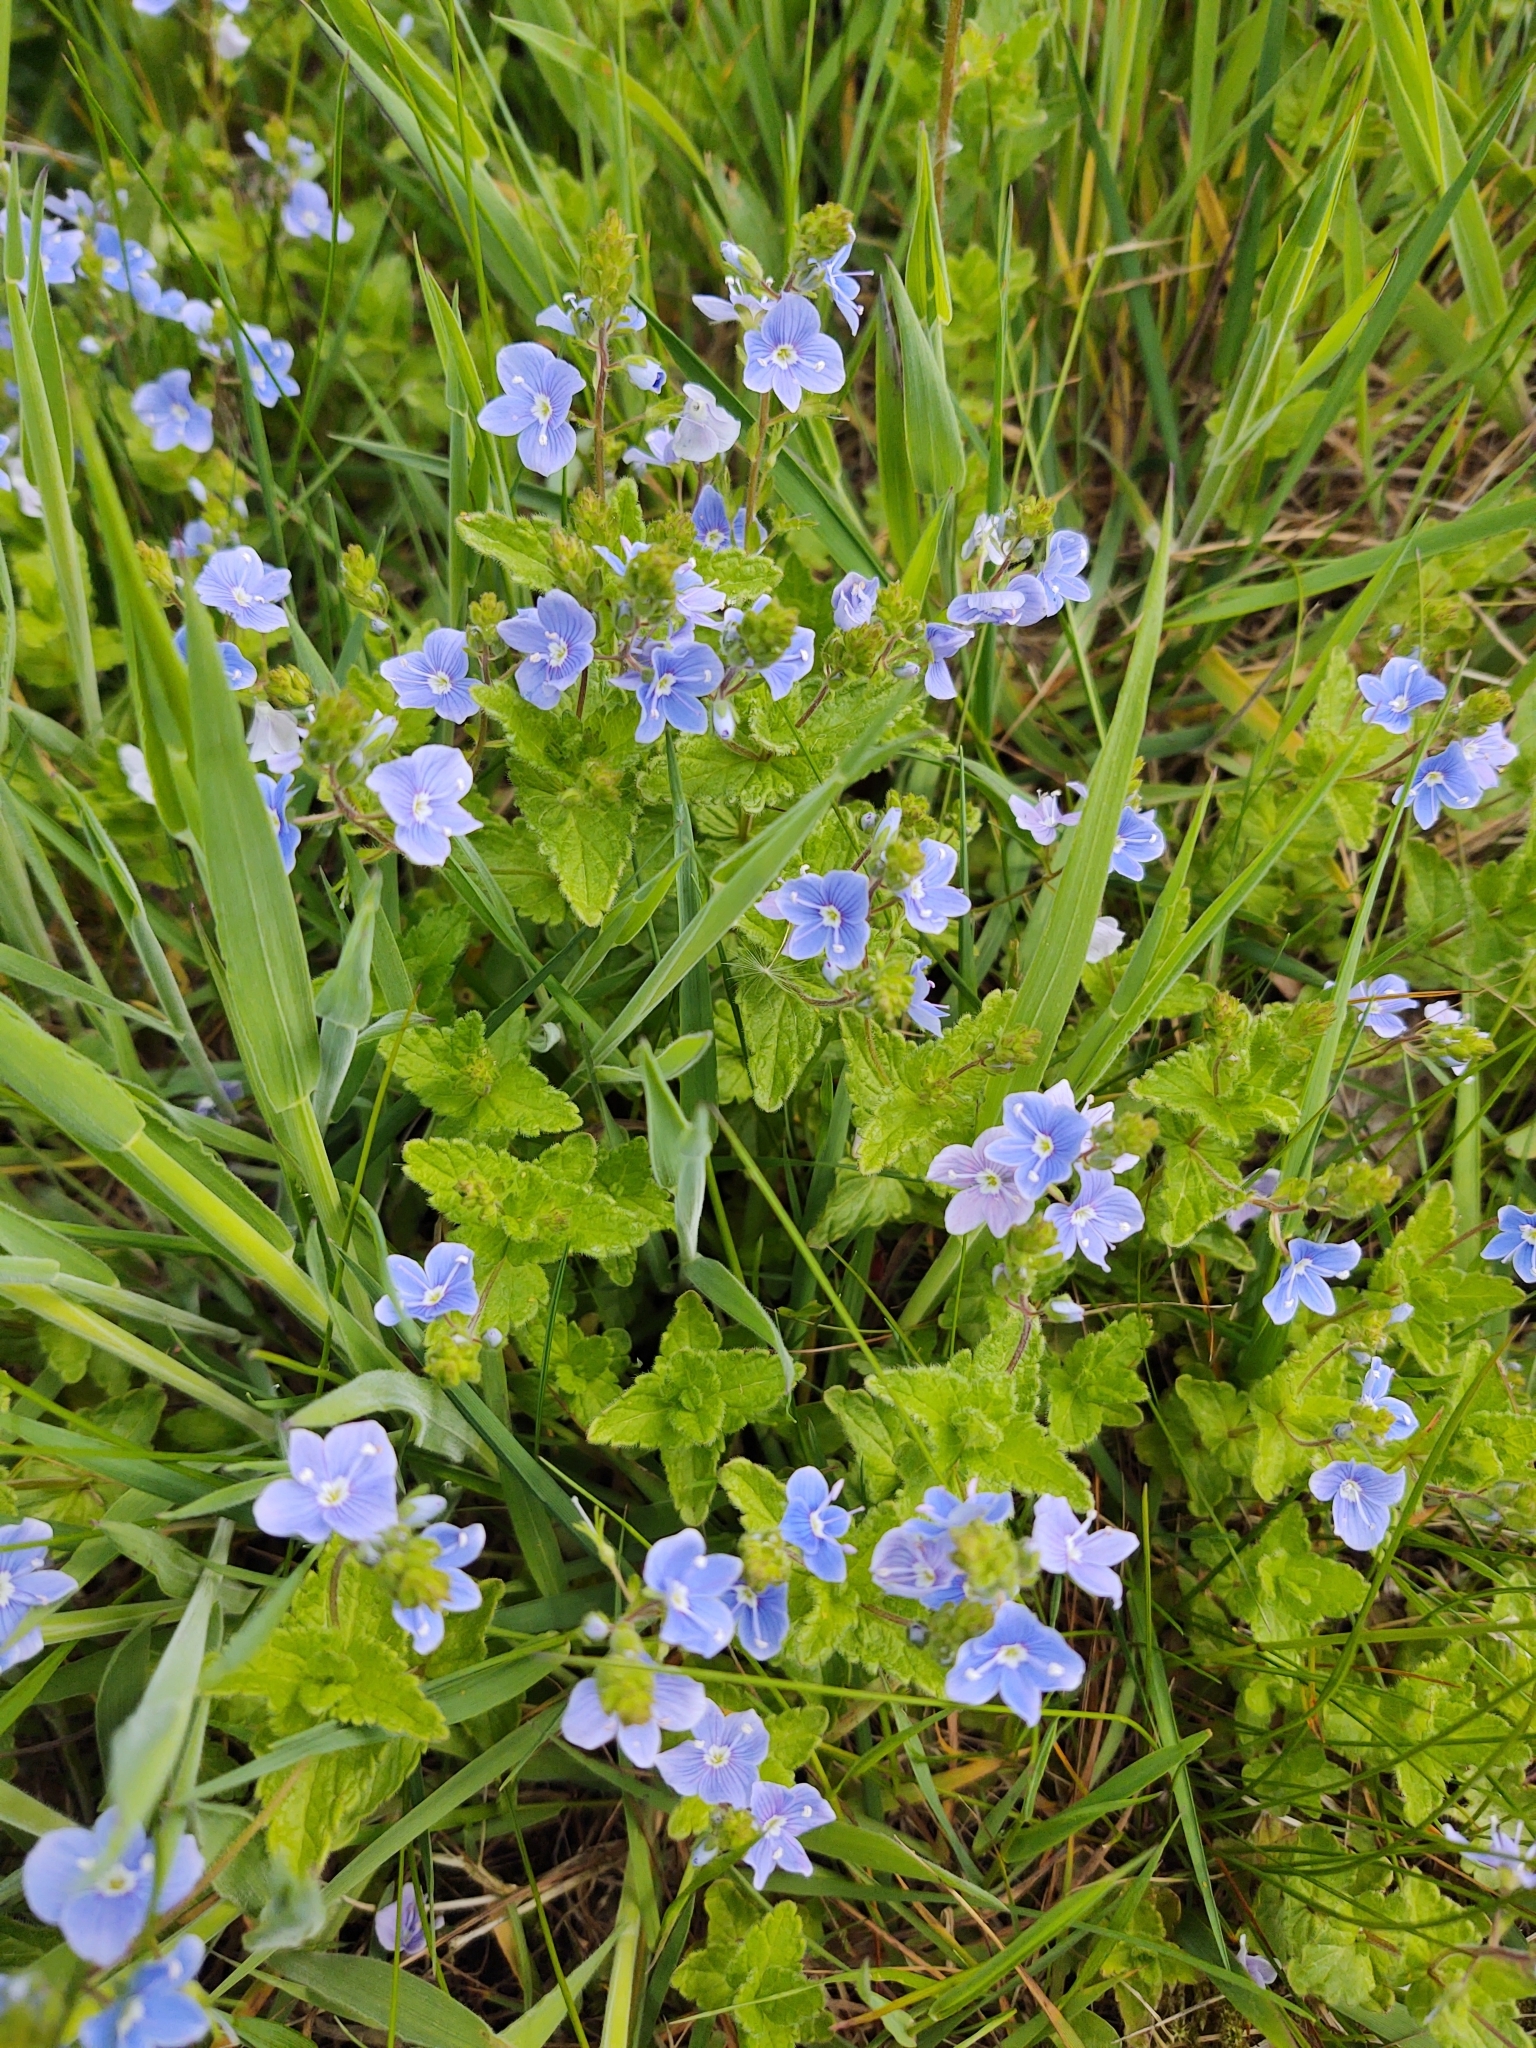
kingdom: Plantae
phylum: Tracheophyta
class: Magnoliopsida
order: Lamiales
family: Plantaginaceae
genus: Veronica
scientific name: Veronica chamaedrys
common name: Germander speedwell
